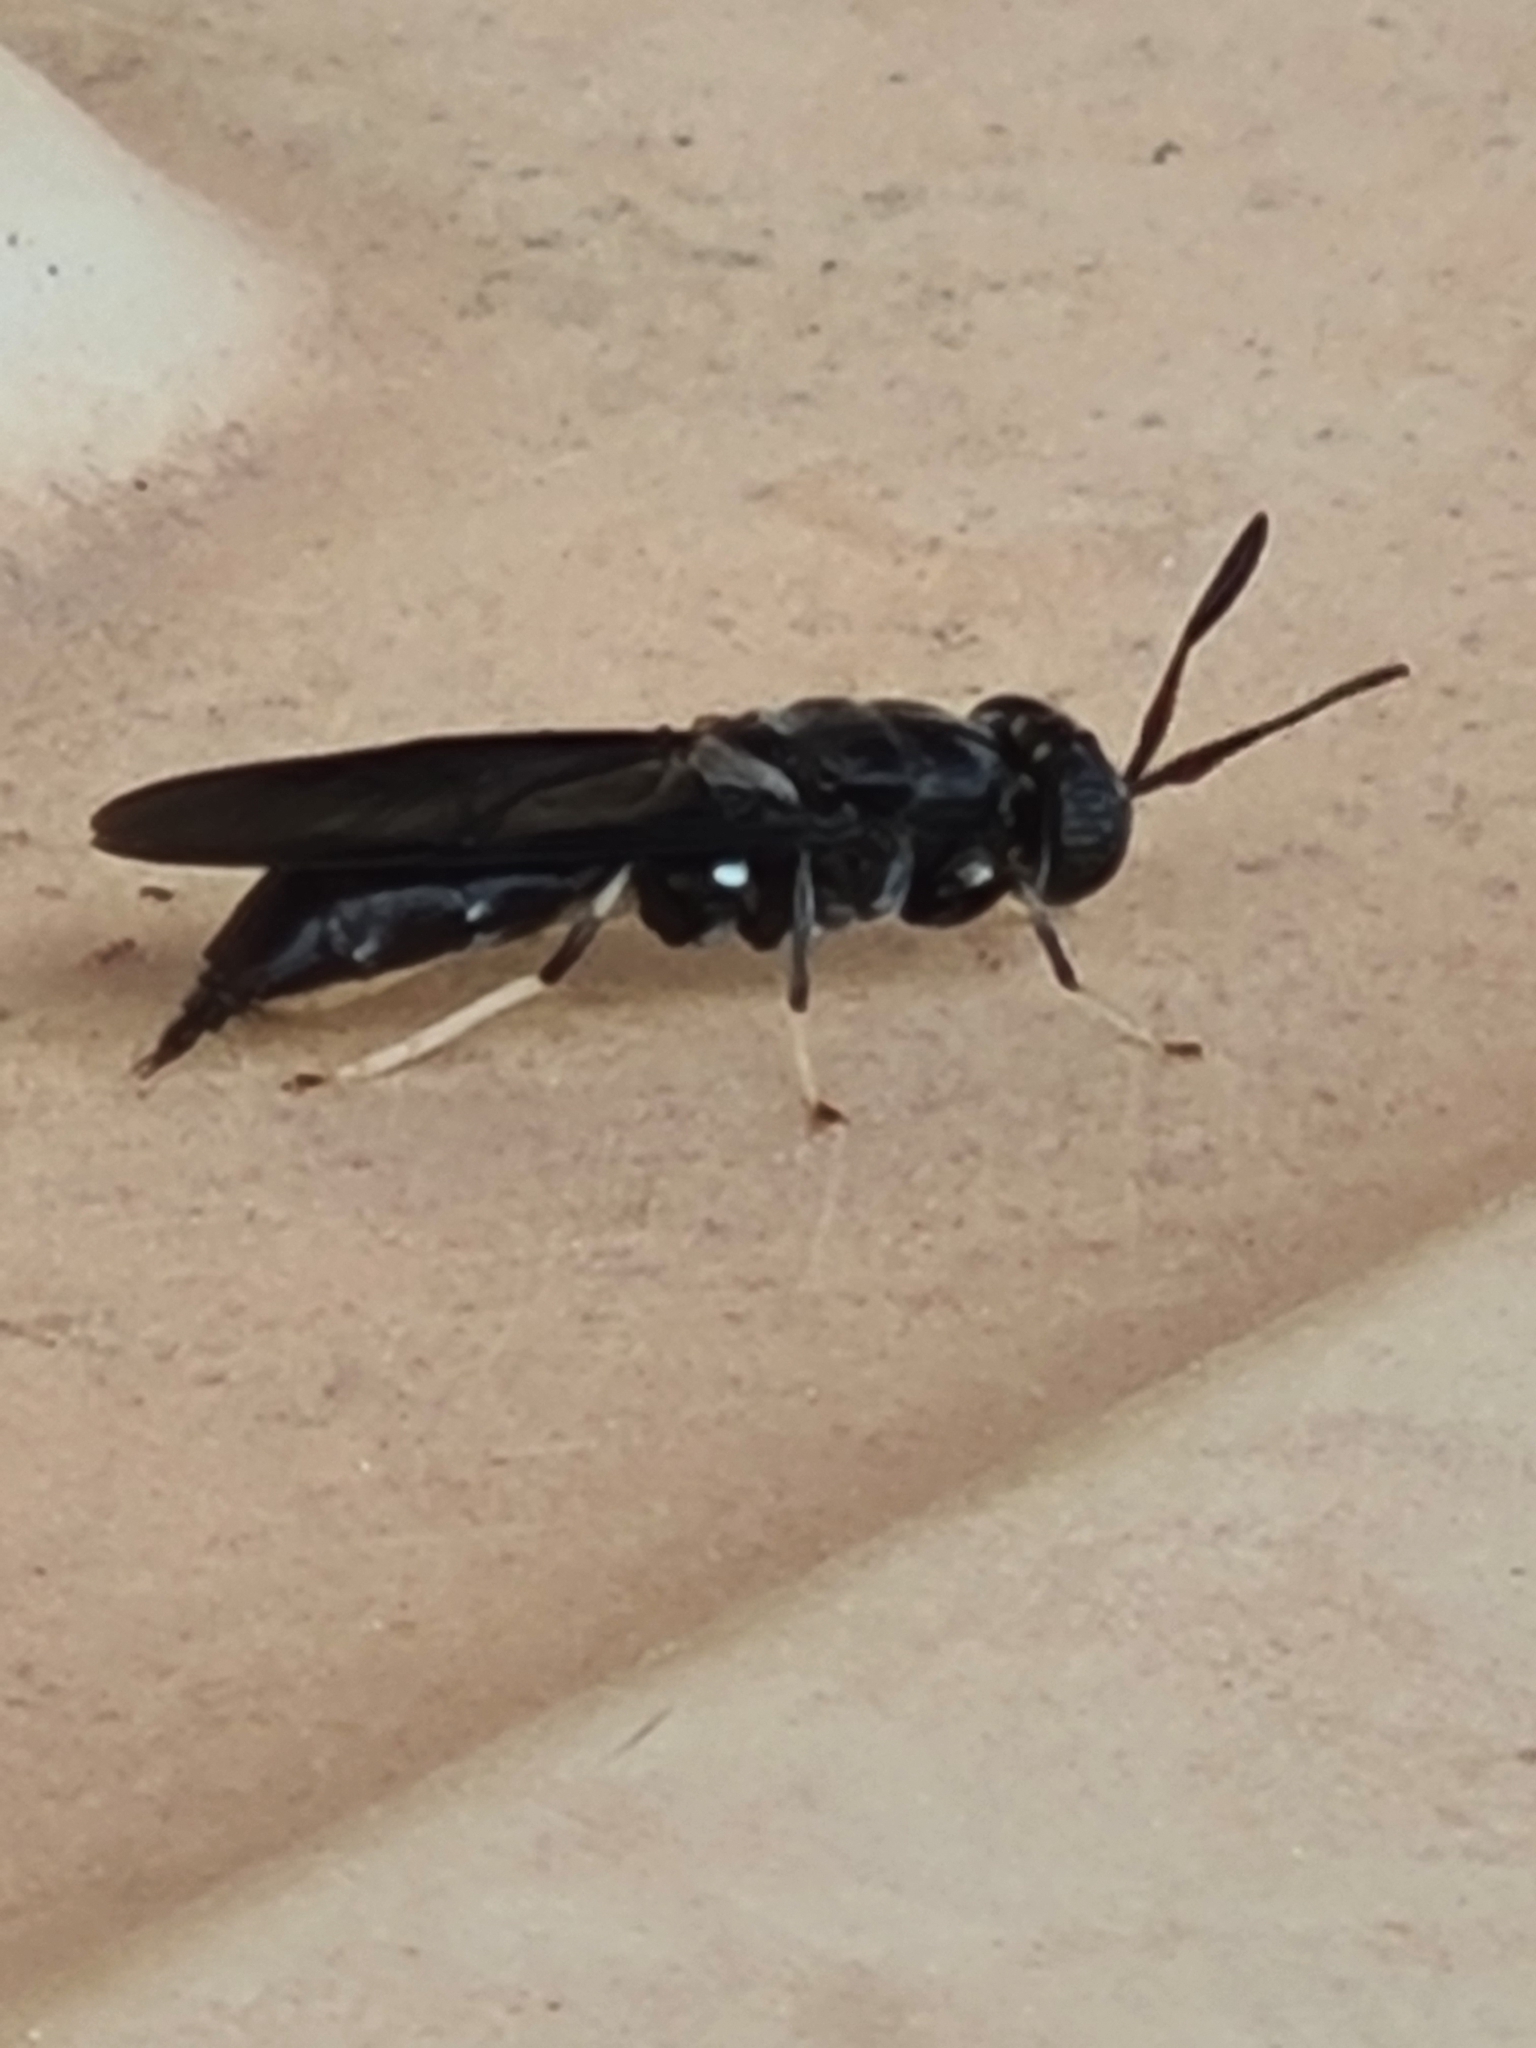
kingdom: Animalia
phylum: Arthropoda
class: Insecta
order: Diptera
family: Stratiomyidae
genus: Hermetia
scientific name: Hermetia illucens
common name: Black soldier fly
